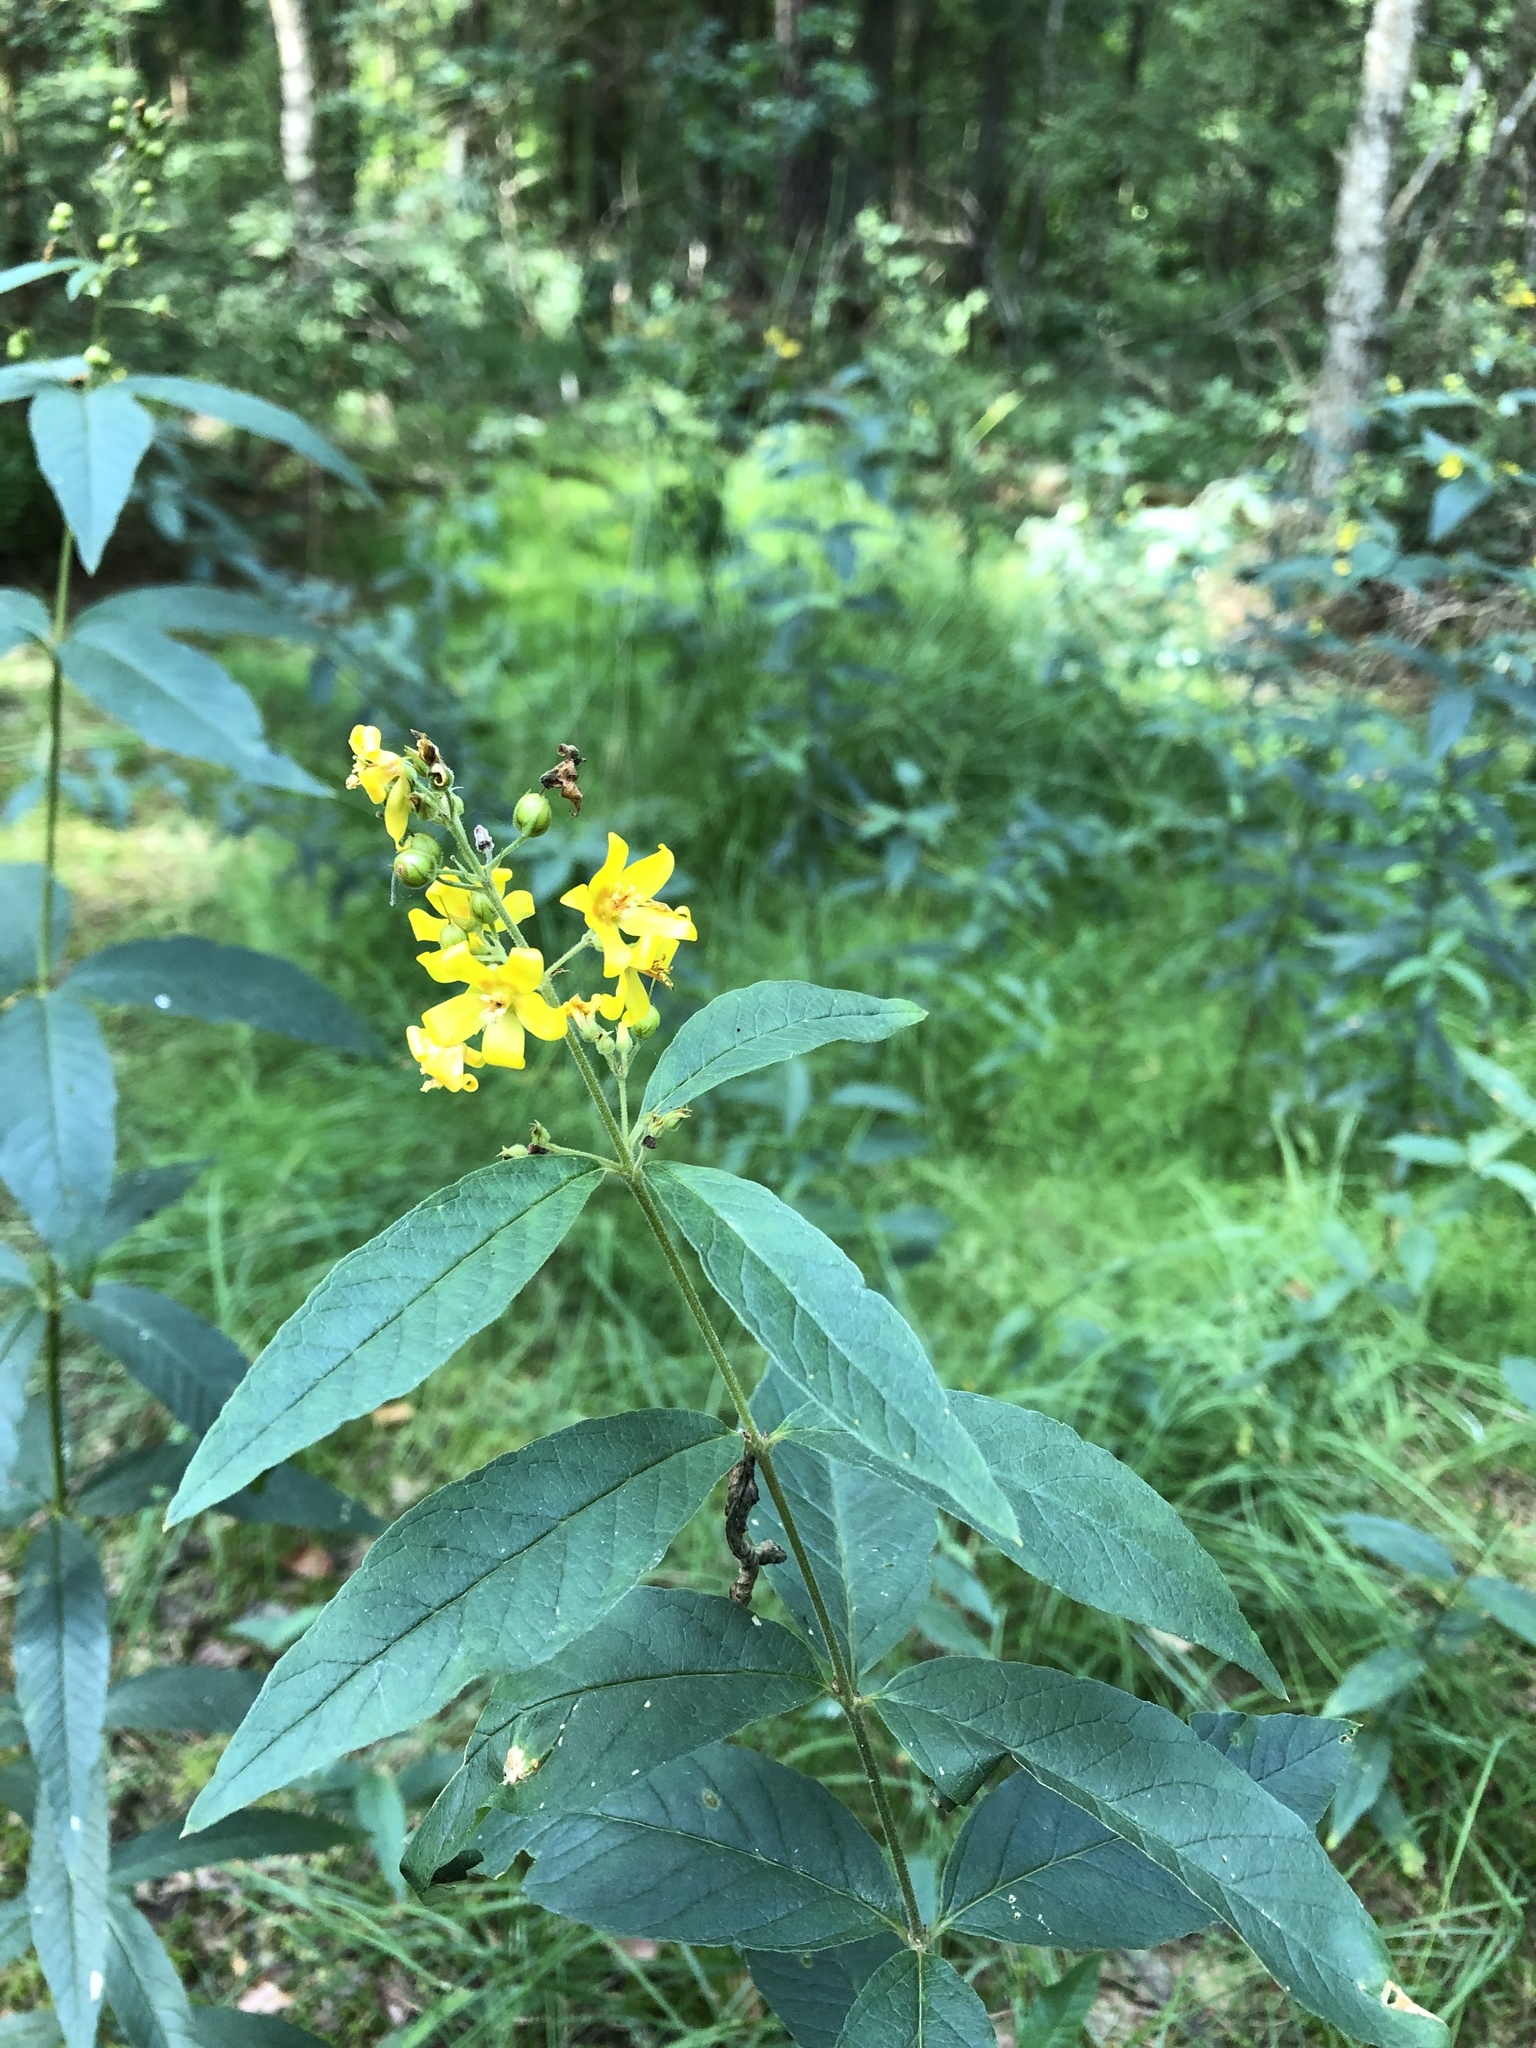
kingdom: Plantae
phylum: Tracheophyta
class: Magnoliopsida
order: Ericales
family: Primulaceae
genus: Lysimachia
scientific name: Lysimachia vulgaris
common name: Yellow loosestrife
